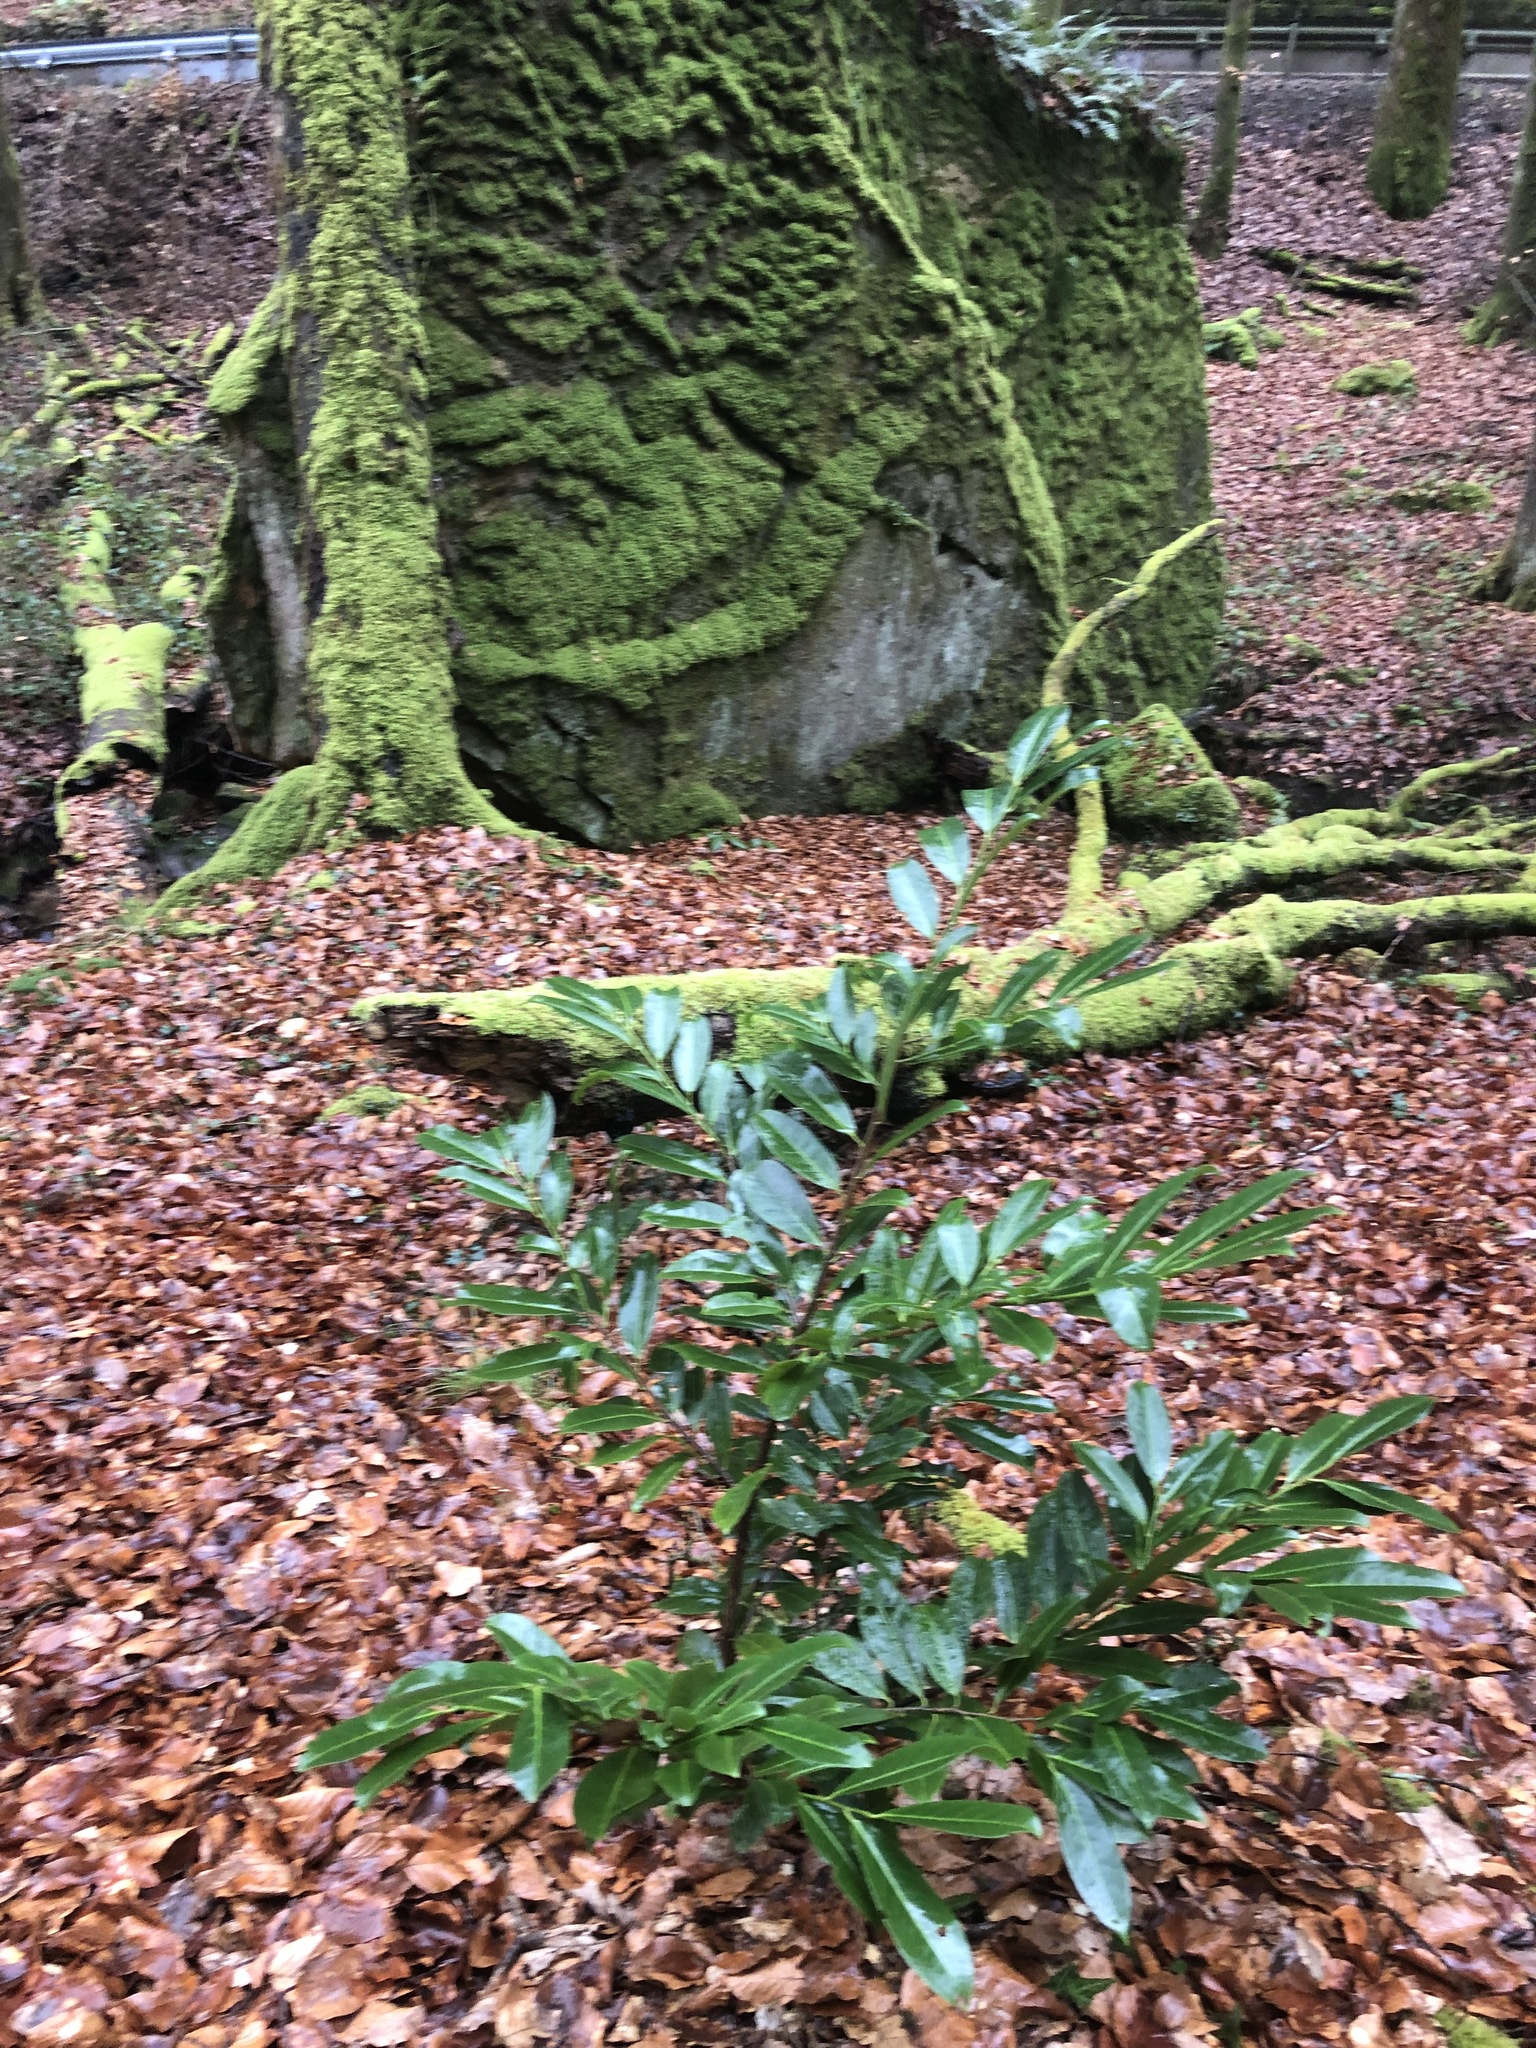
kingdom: Plantae
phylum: Tracheophyta
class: Magnoliopsida
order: Rosales
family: Rosaceae
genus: Prunus
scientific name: Prunus laurocerasus
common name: Cherry laurel
